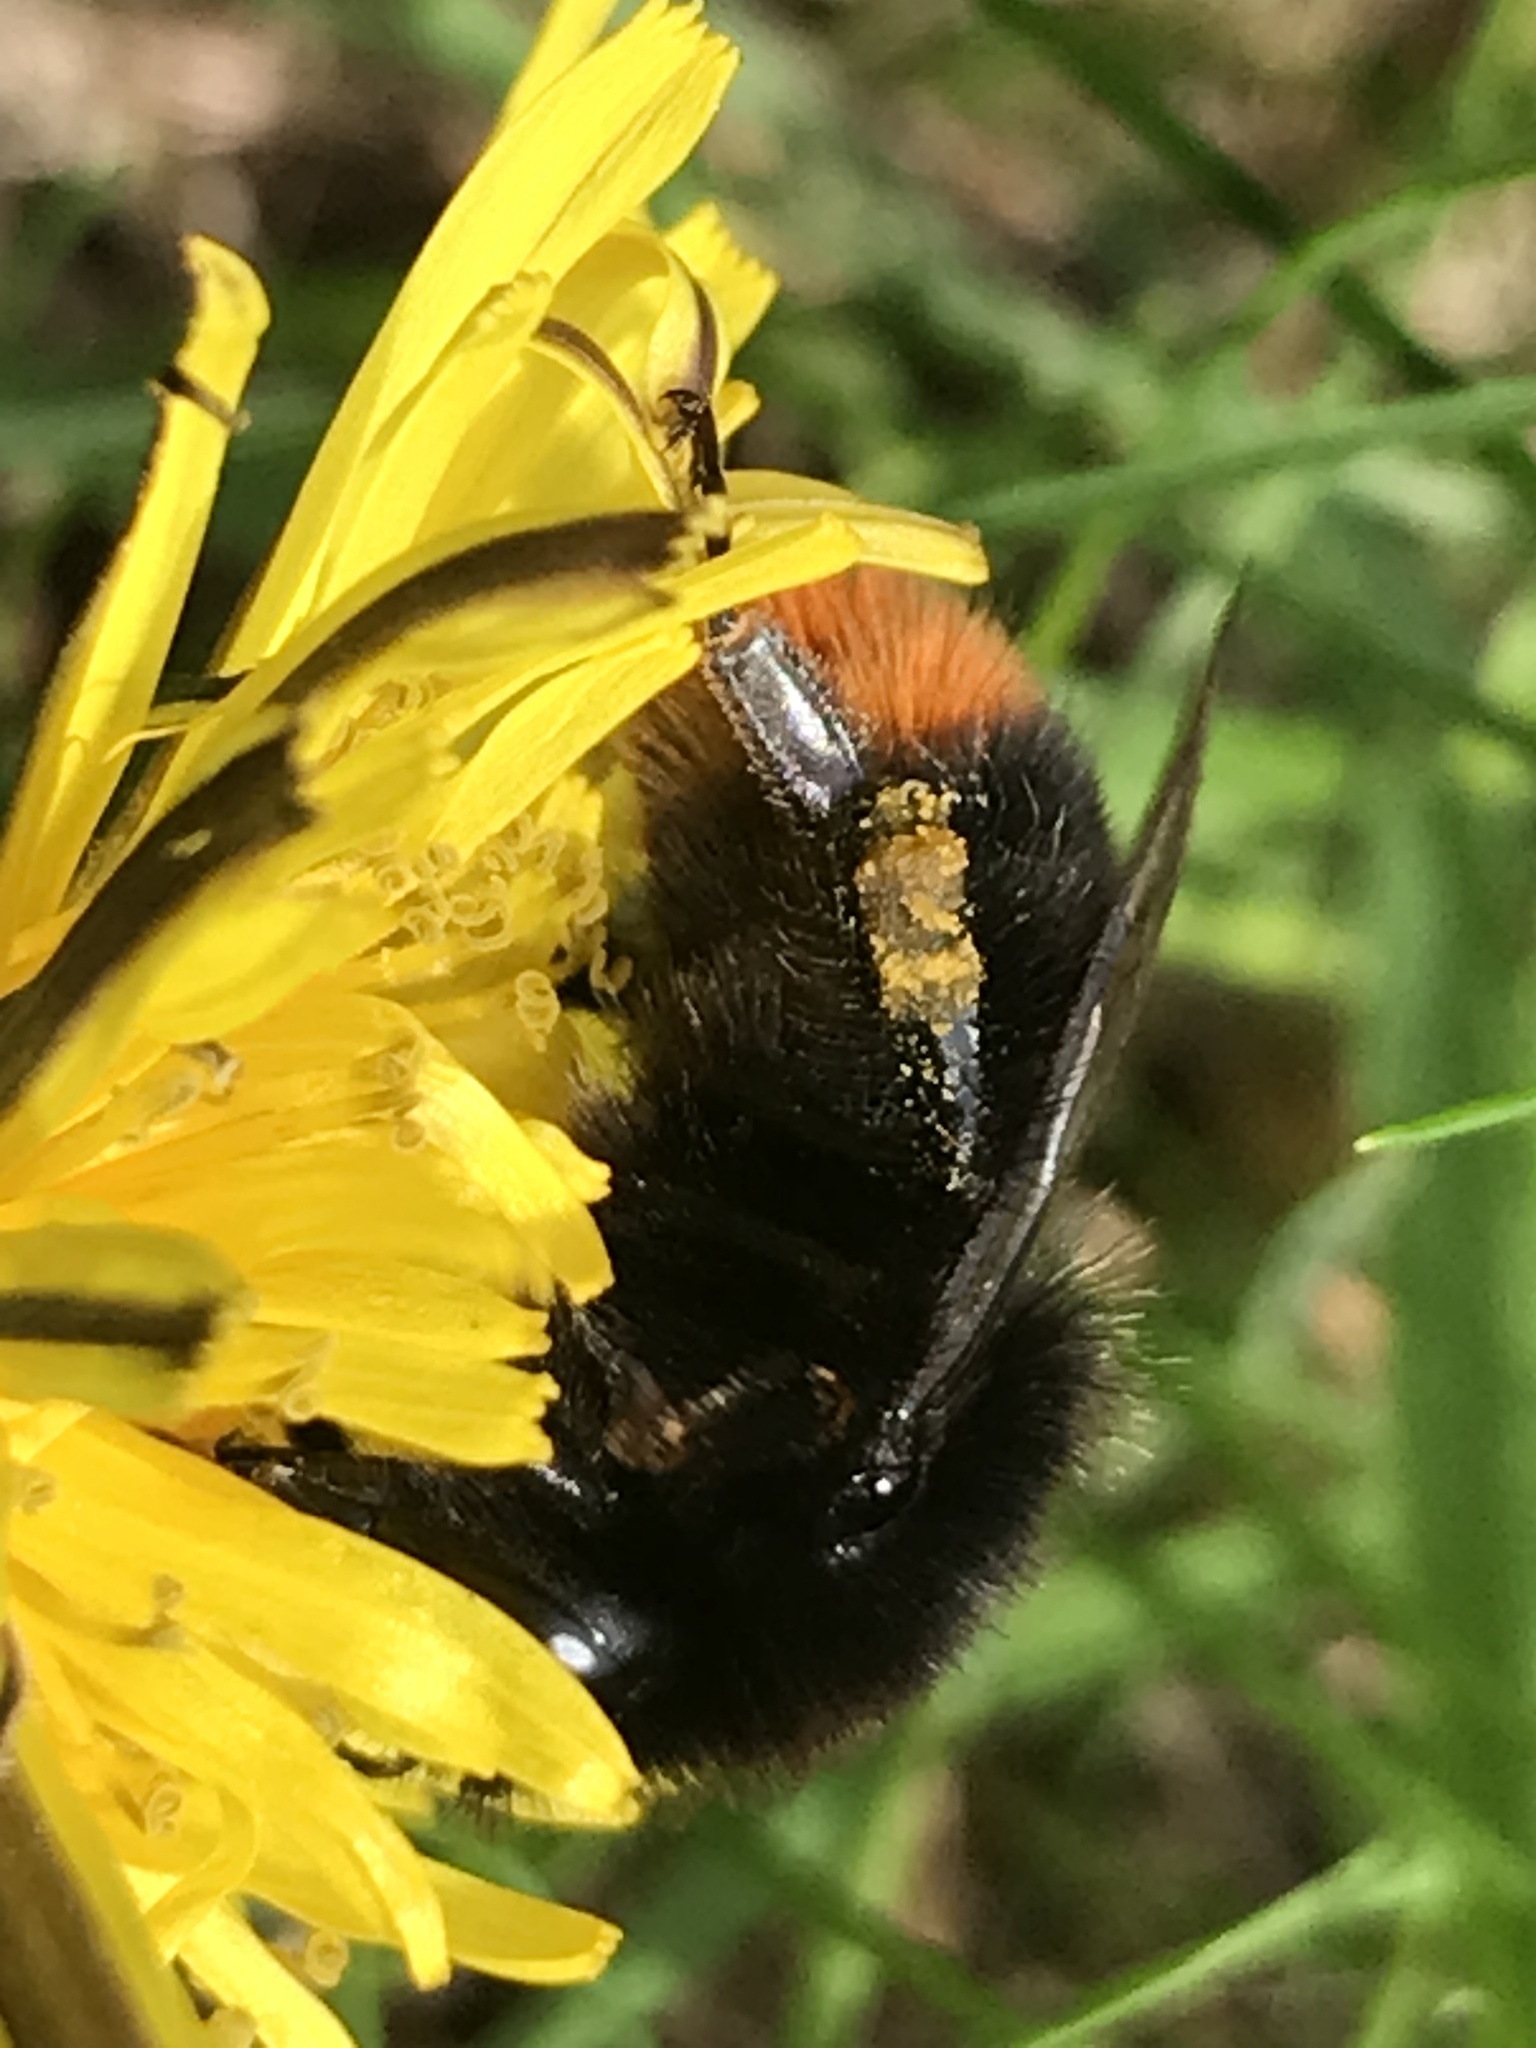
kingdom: Animalia
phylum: Arthropoda
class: Insecta
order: Hymenoptera
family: Apidae
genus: Bombus
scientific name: Bombus lapidarius
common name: Large red-tailed humble-bee
